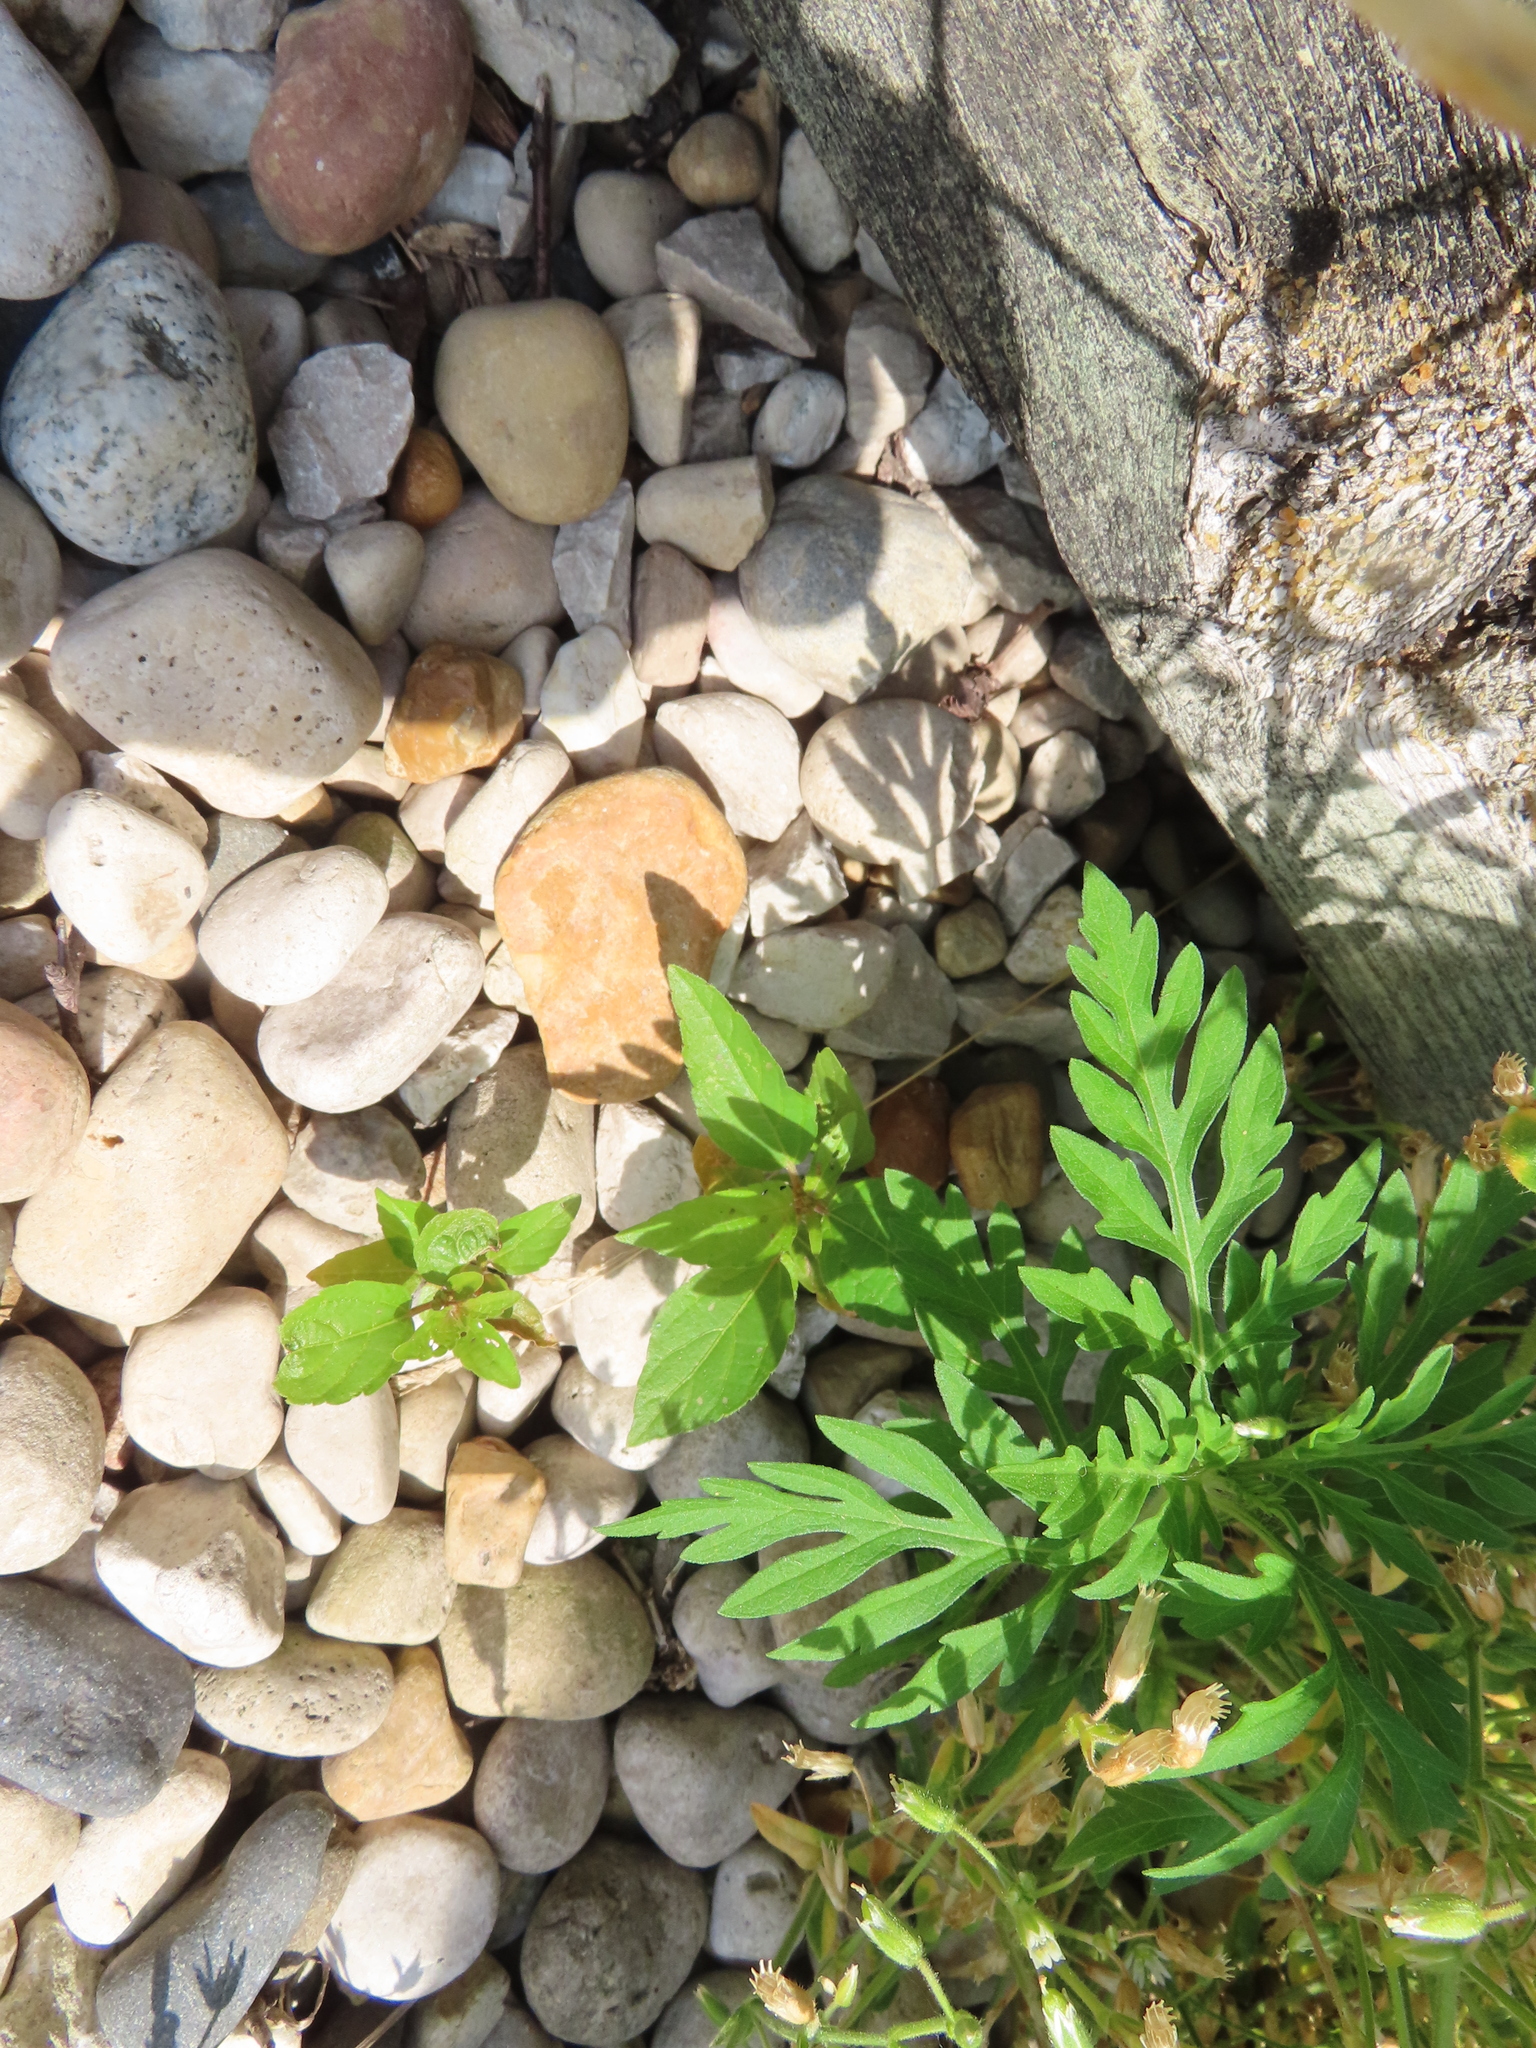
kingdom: Plantae
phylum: Tracheophyta
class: Magnoliopsida
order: Malpighiales
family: Euphorbiaceae
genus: Acalypha
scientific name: Acalypha rhomboidea
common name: Rhombic copperleaf
